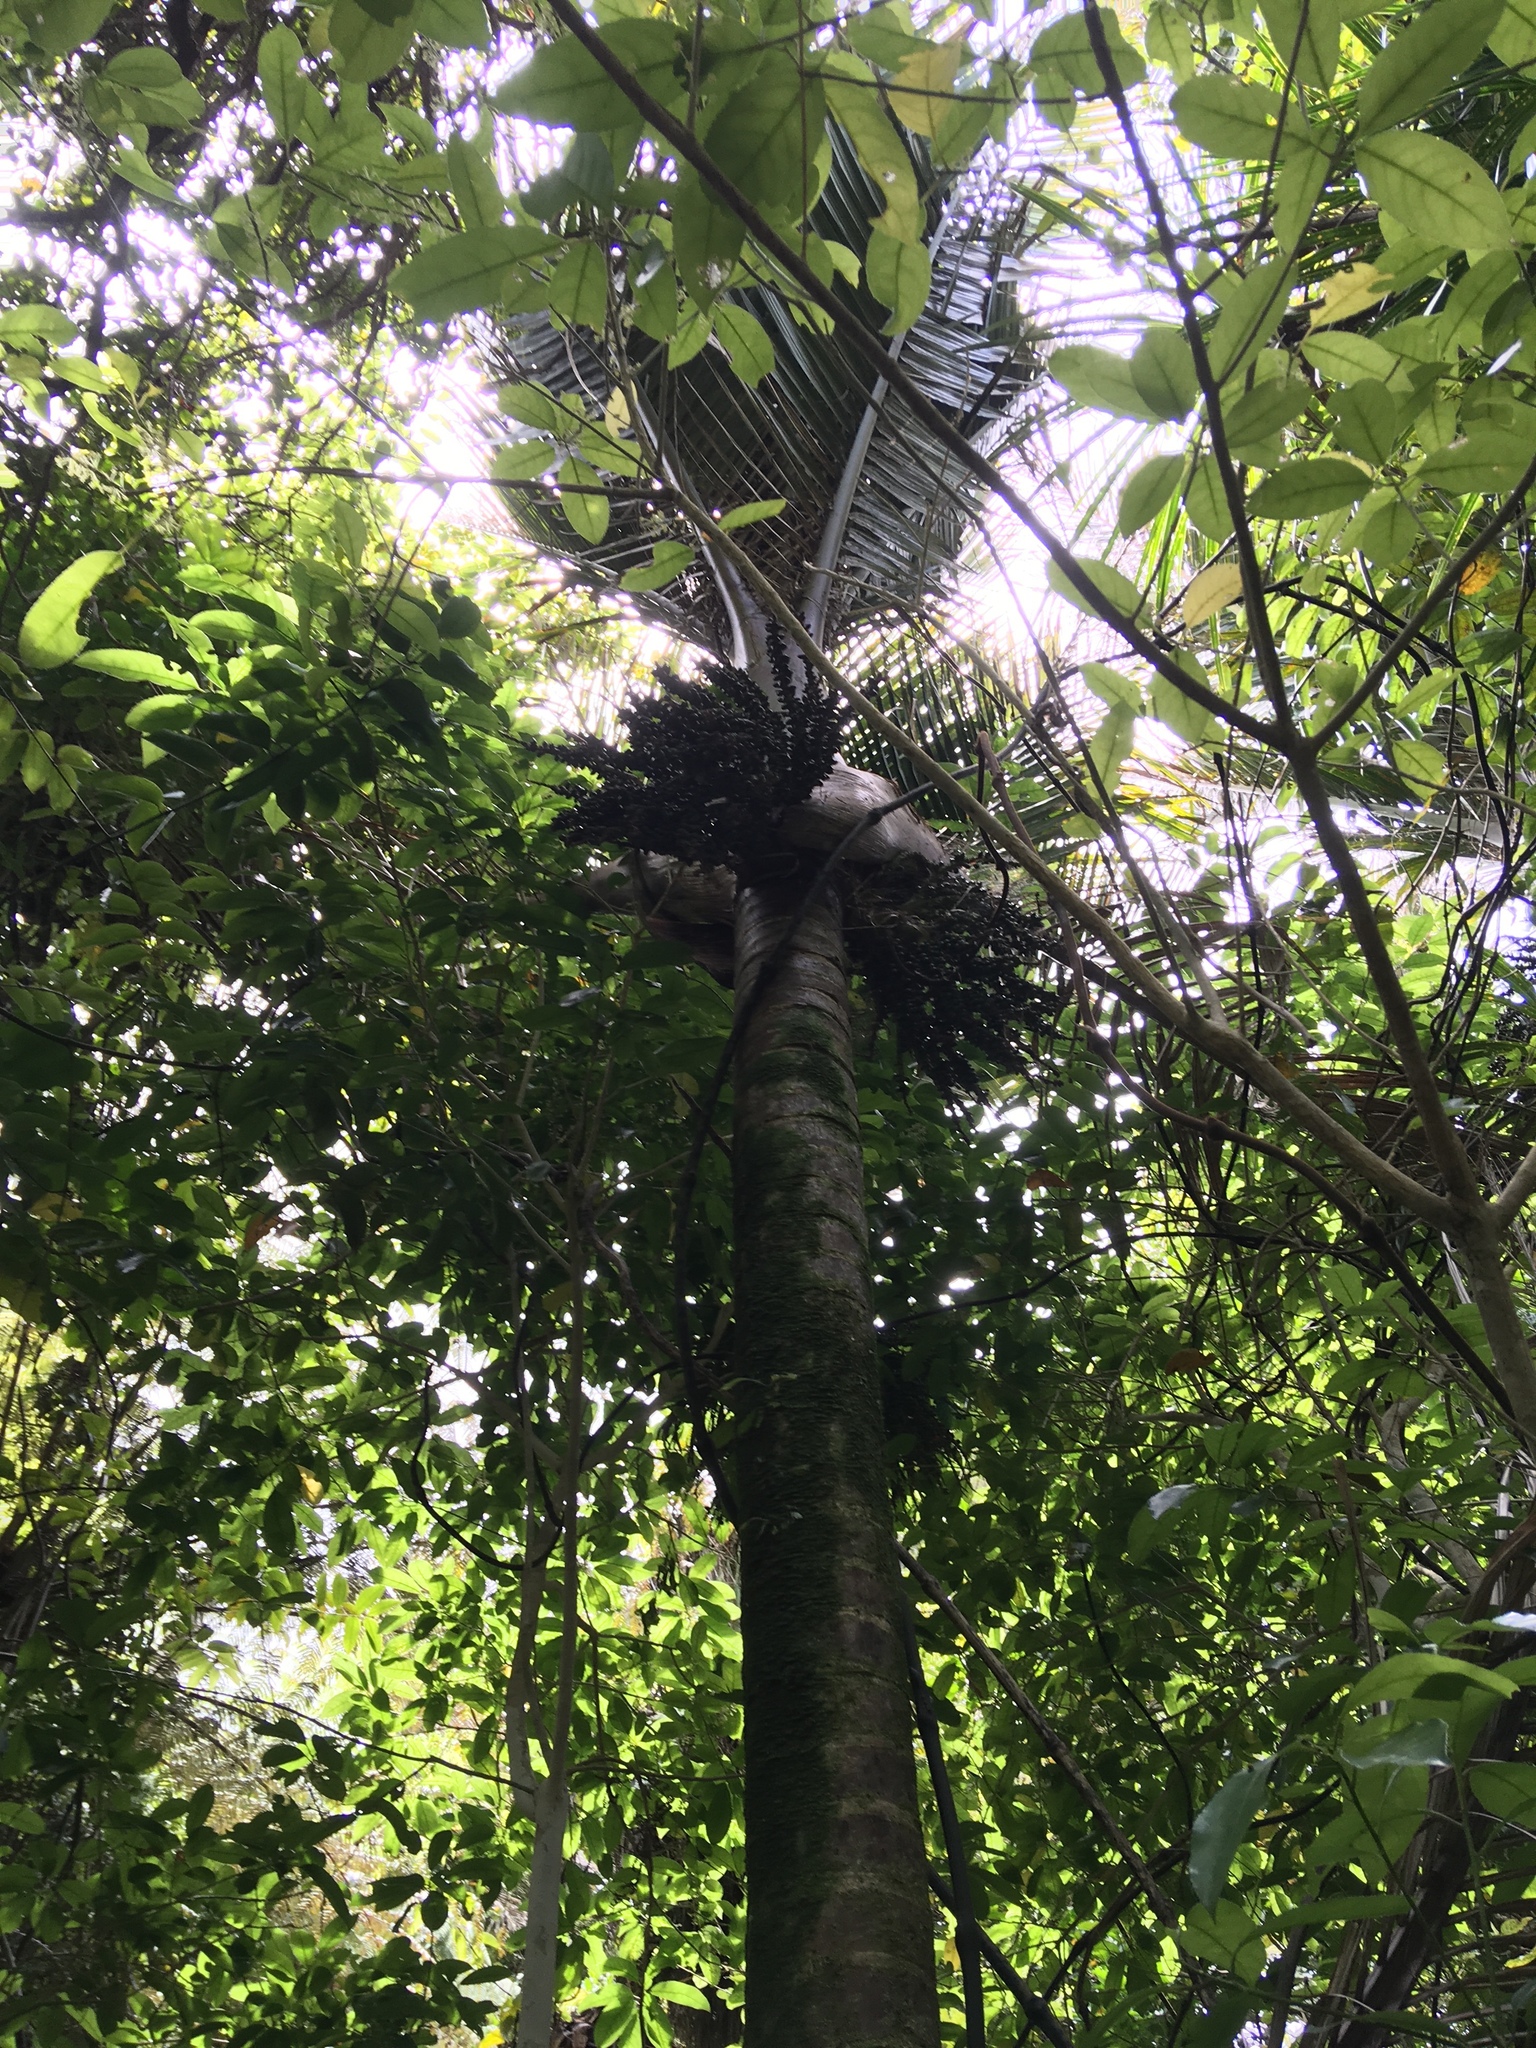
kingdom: Plantae
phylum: Tracheophyta
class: Liliopsida
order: Arecales
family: Arecaceae
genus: Rhopalostylis
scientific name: Rhopalostylis sapida
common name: Feather-duster palm
